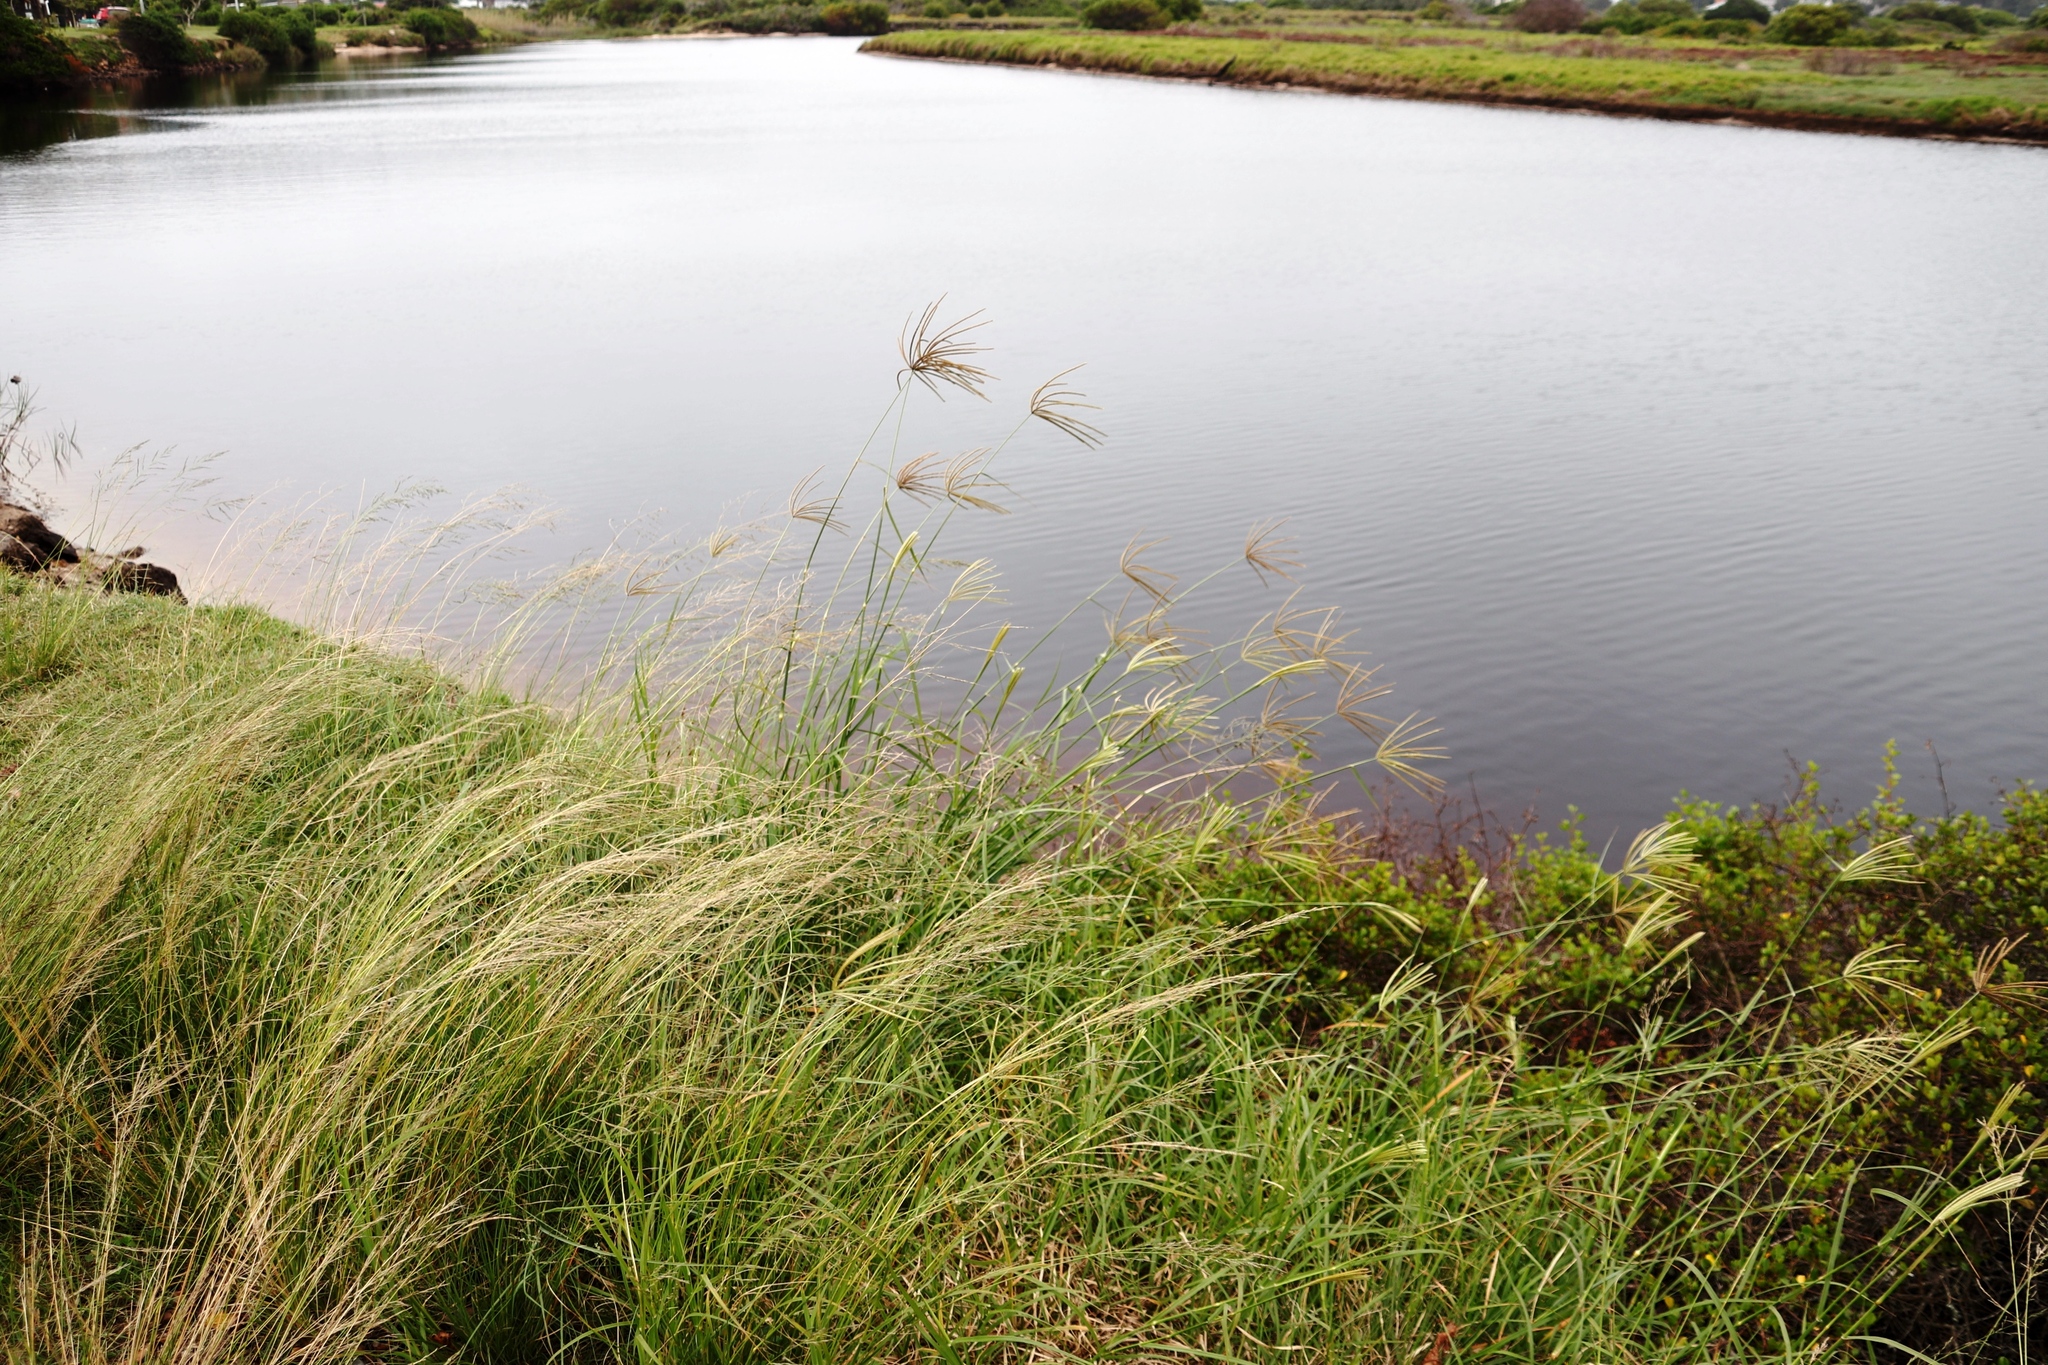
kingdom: Plantae
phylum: Tracheophyta
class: Liliopsida
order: Poales
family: Poaceae
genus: Chloris
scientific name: Chloris gayana
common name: Rhodes grass
